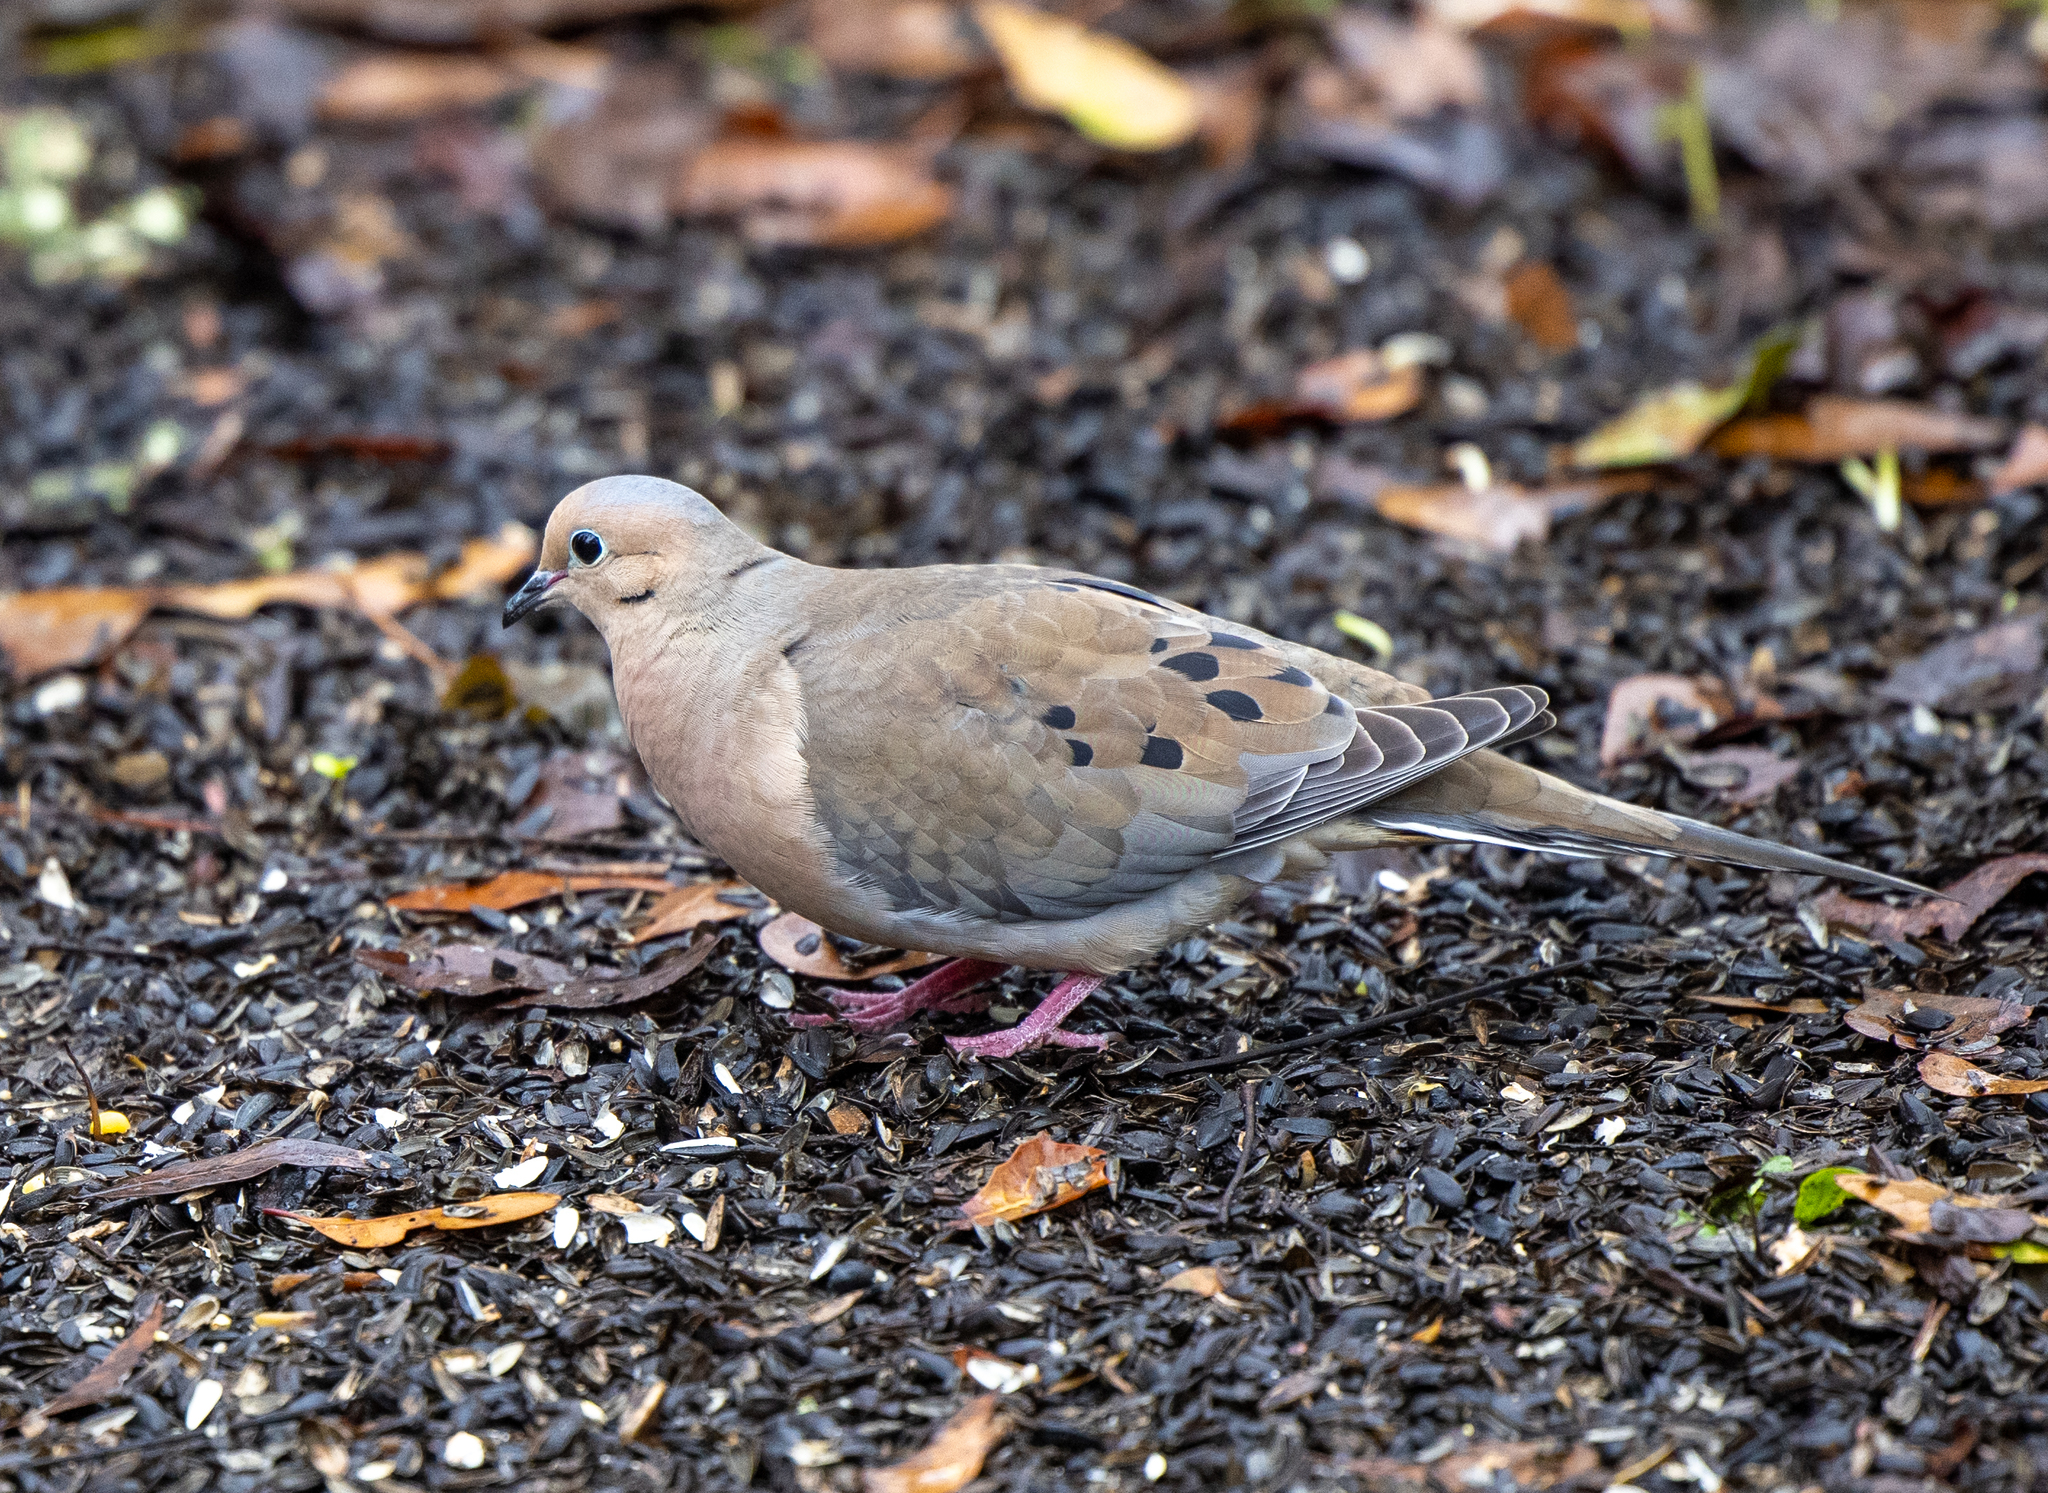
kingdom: Animalia
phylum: Chordata
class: Aves
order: Columbiformes
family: Columbidae
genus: Zenaida
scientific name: Zenaida macroura
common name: Mourning dove
